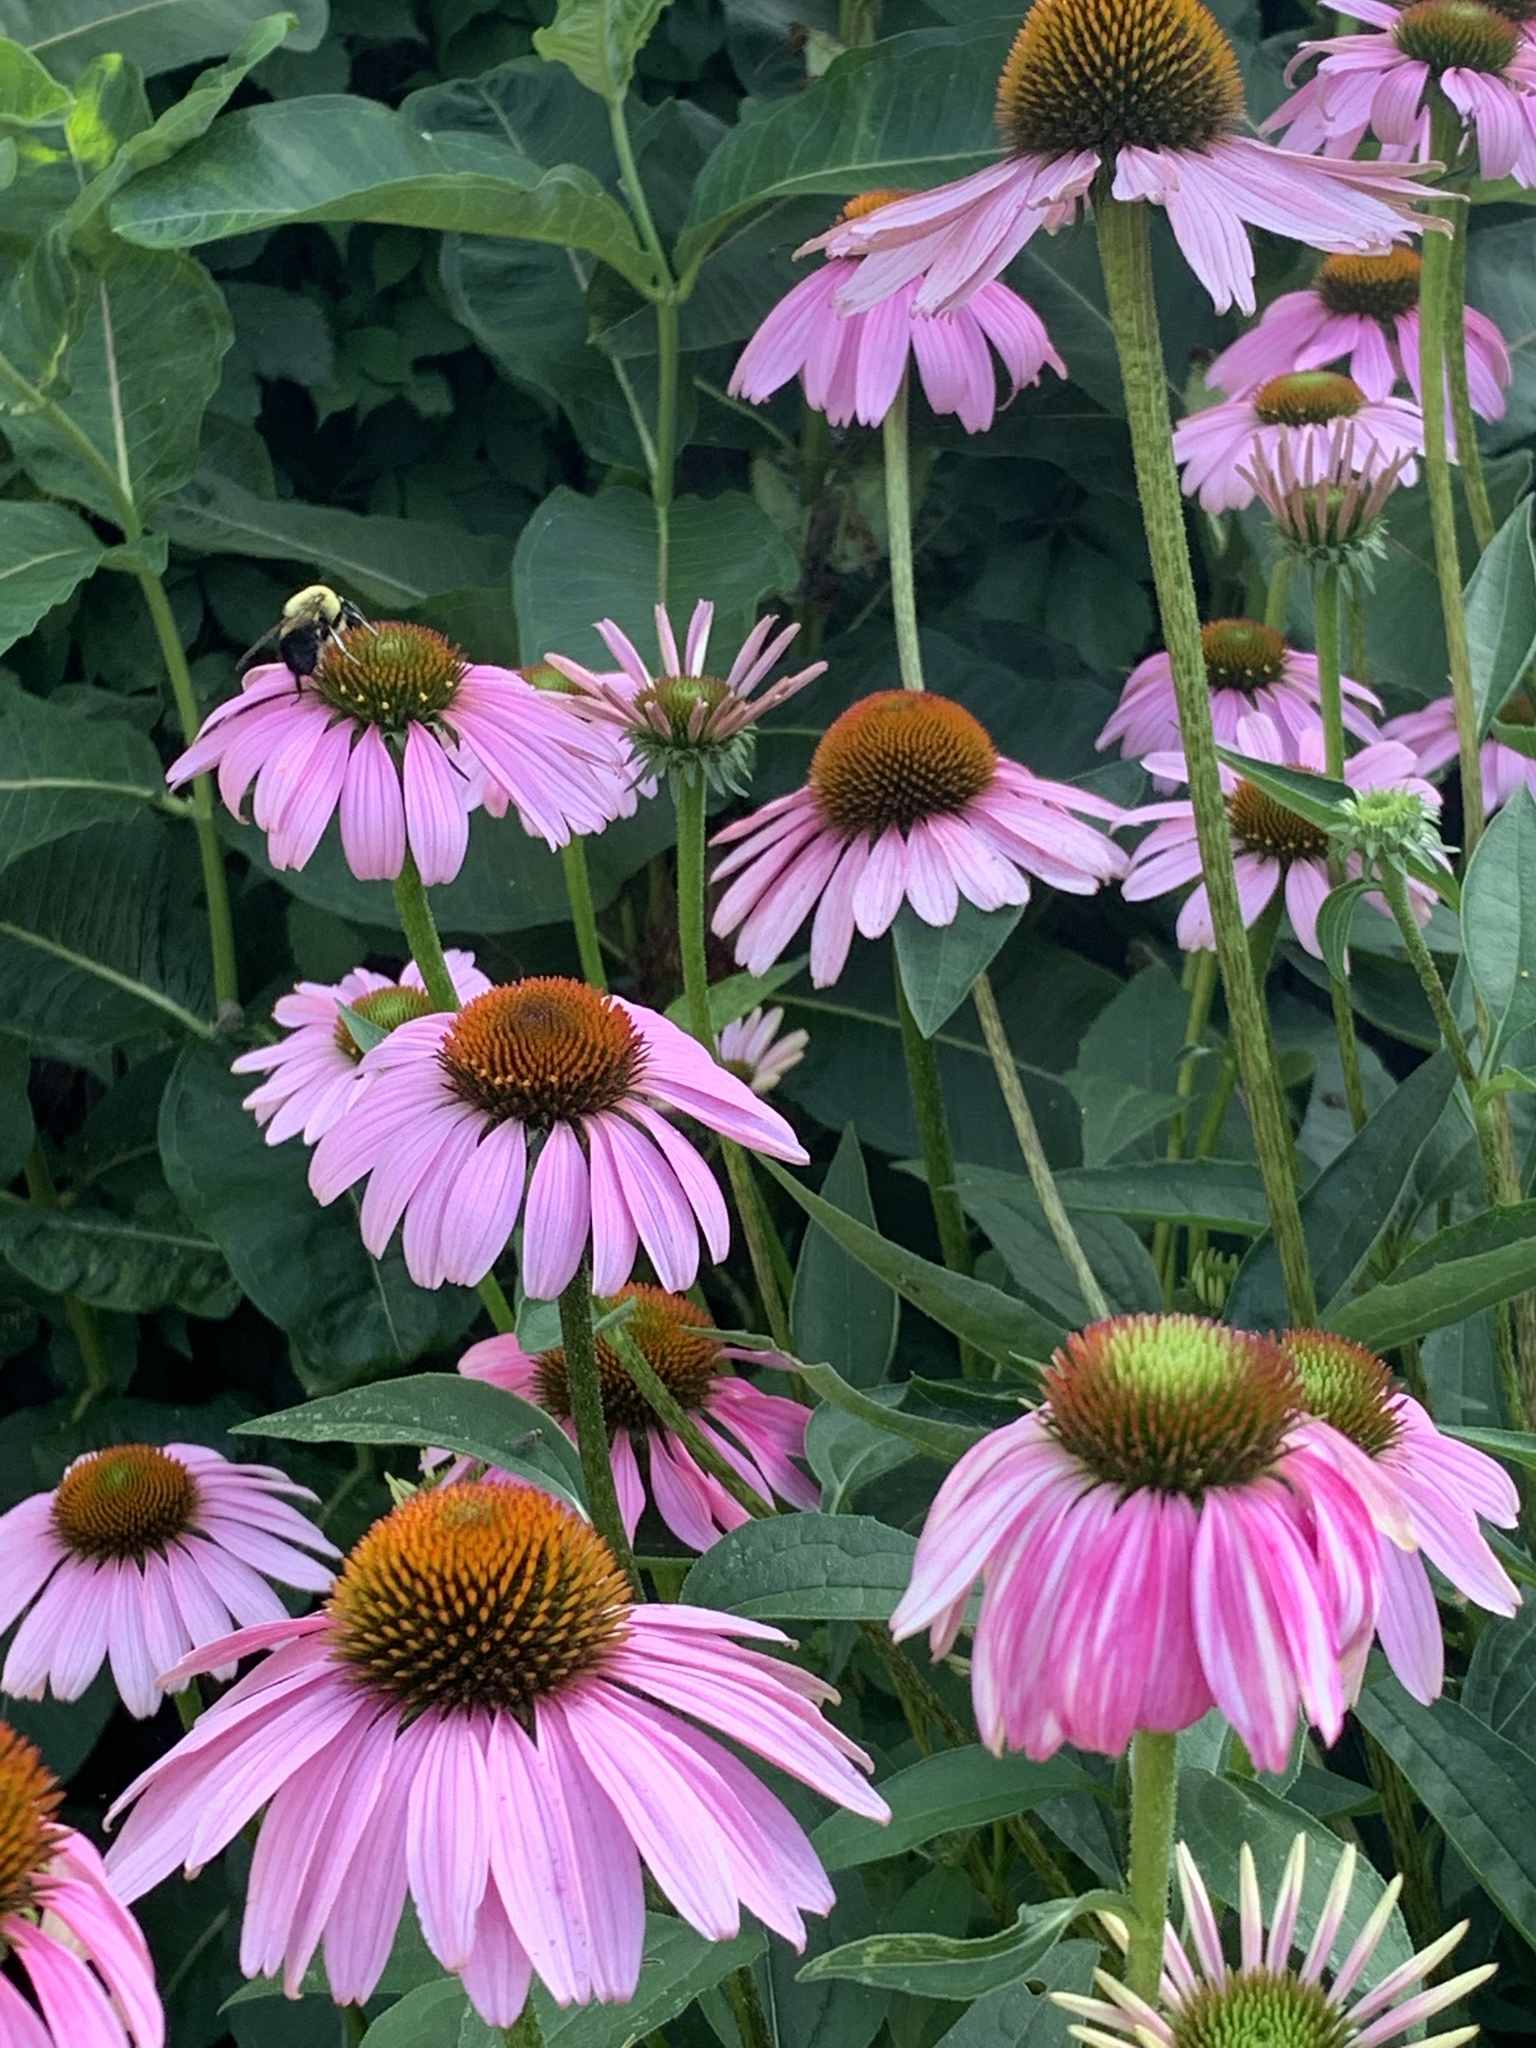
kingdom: Plantae
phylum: Tracheophyta
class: Magnoliopsida
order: Asterales
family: Asteraceae
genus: Echinacea
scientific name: Echinacea purpurea
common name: Broad-leaved purple coneflower
